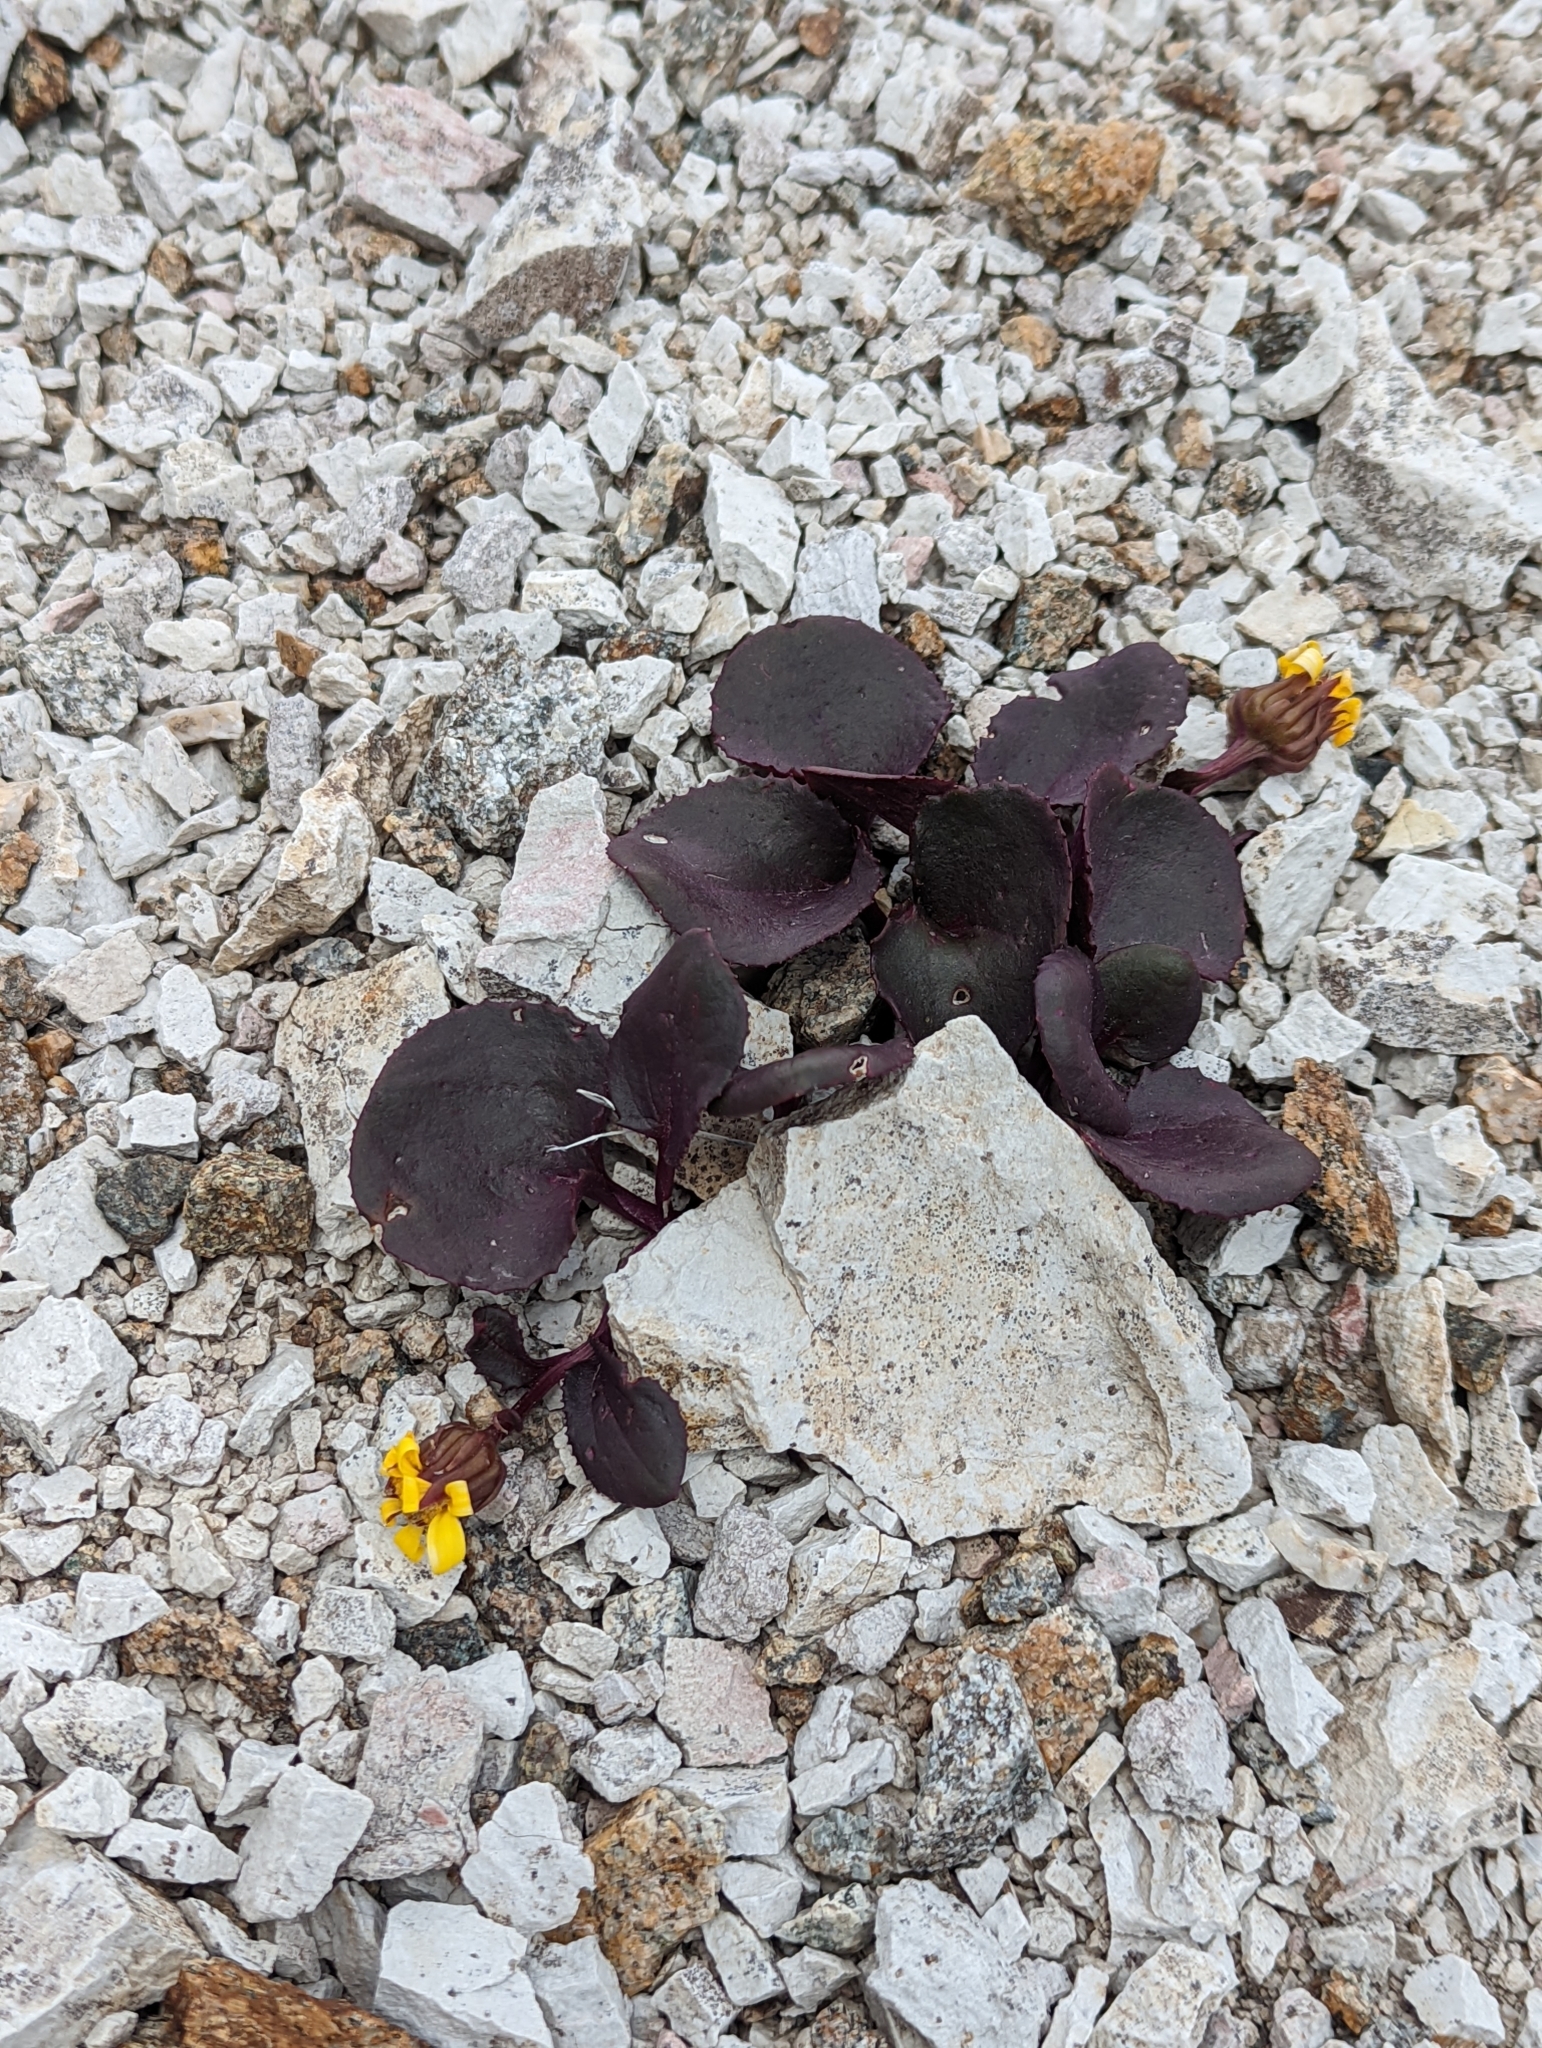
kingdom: Plantae
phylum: Tracheophyta
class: Magnoliopsida
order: Asterales
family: Asteraceae
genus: Senecio
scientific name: Senecio soldanella
